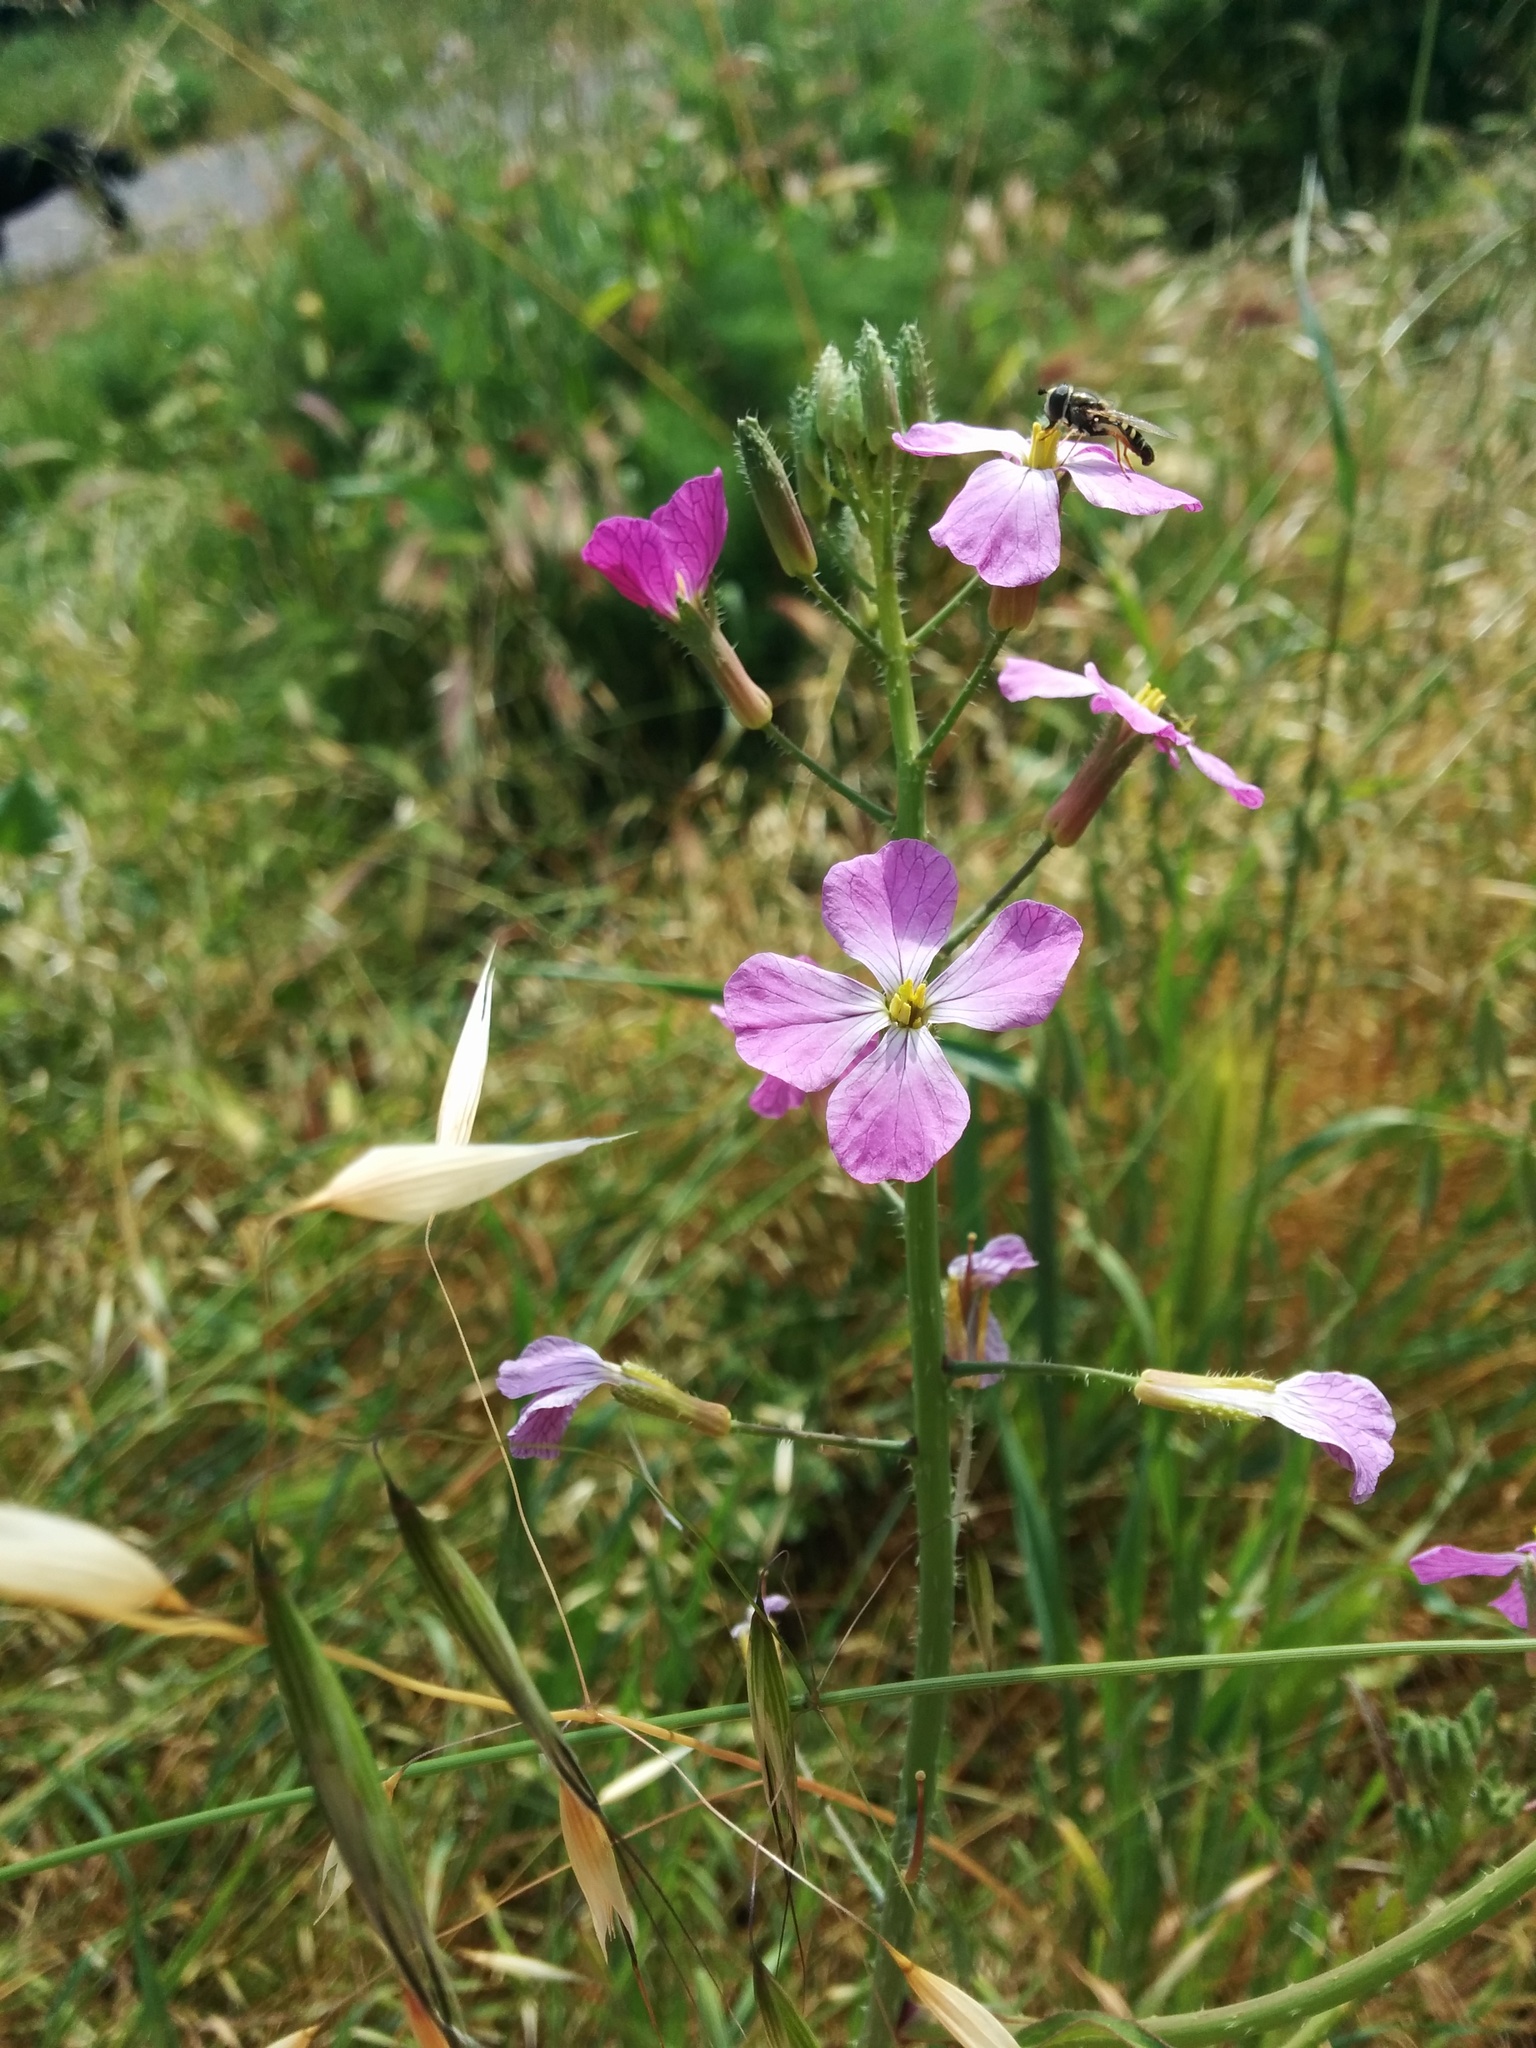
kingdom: Plantae
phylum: Tracheophyta
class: Magnoliopsida
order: Brassicales
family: Brassicaceae
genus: Raphanus
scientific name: Raphanus sativus
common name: Cultivated radish
